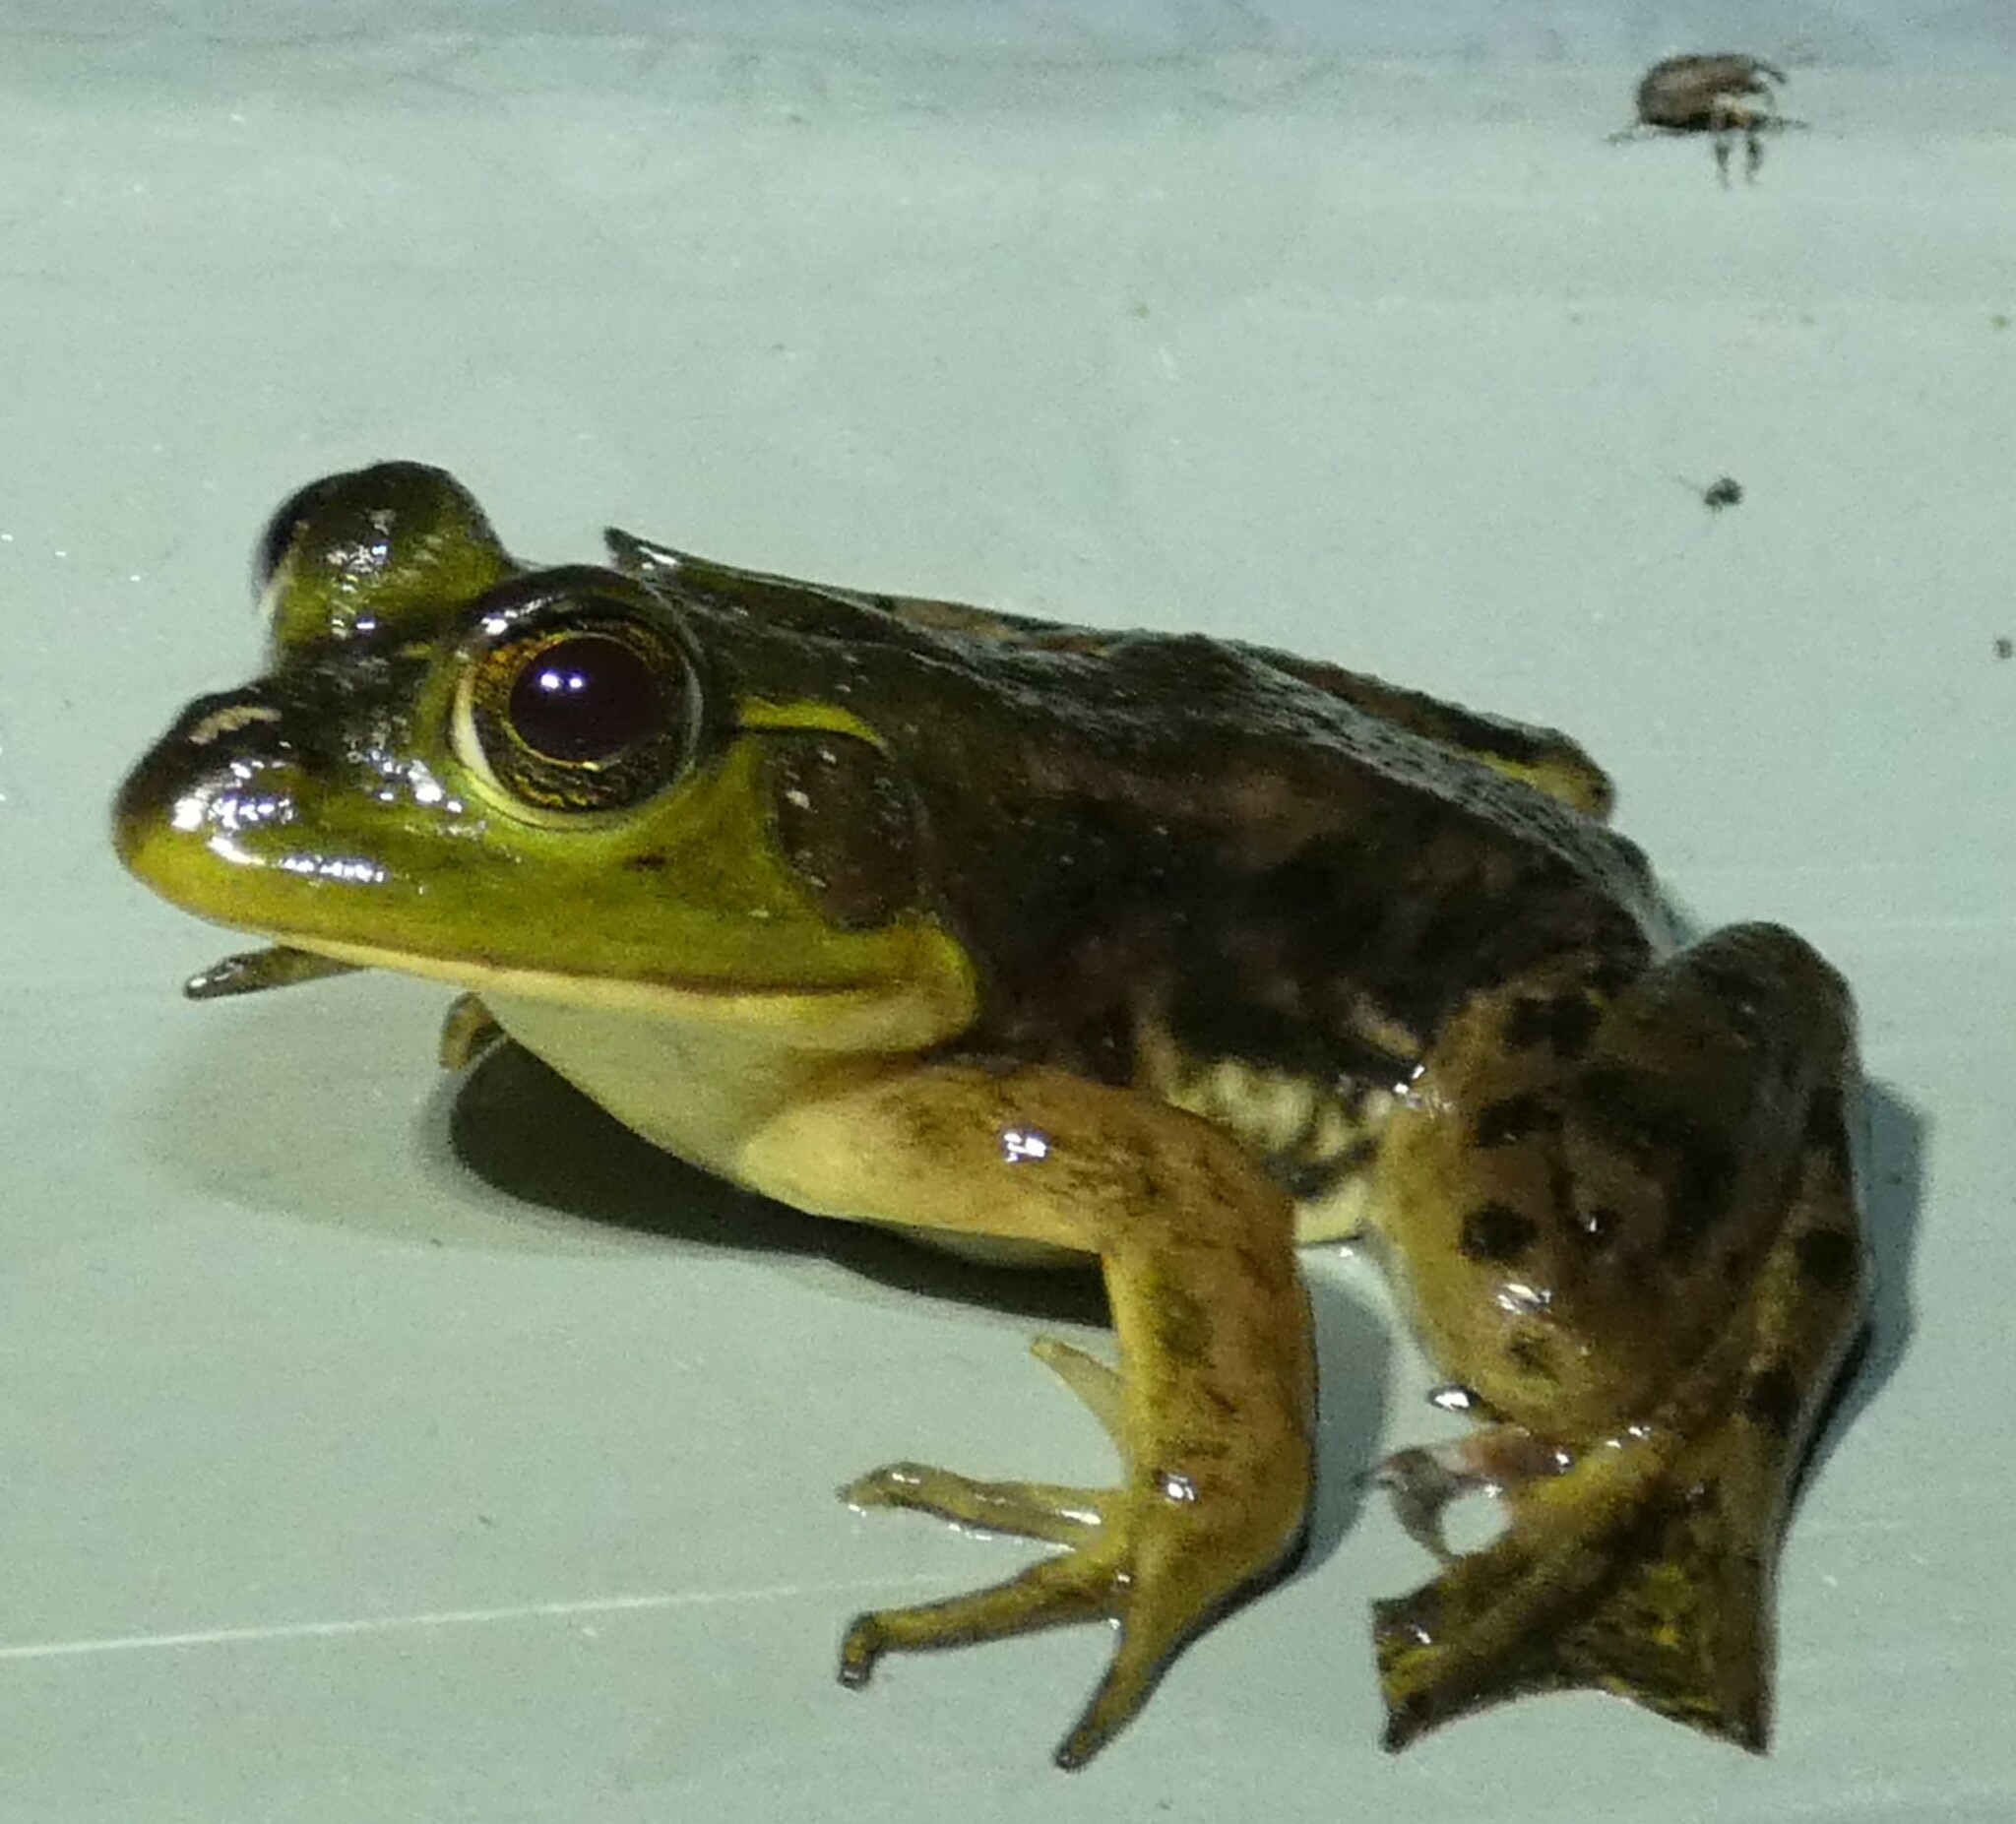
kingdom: Animalia
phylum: Chordata
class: Amphibia
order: Anura
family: Ranidae
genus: Lithobates
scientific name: Lithobates grylio
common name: Pig frog
